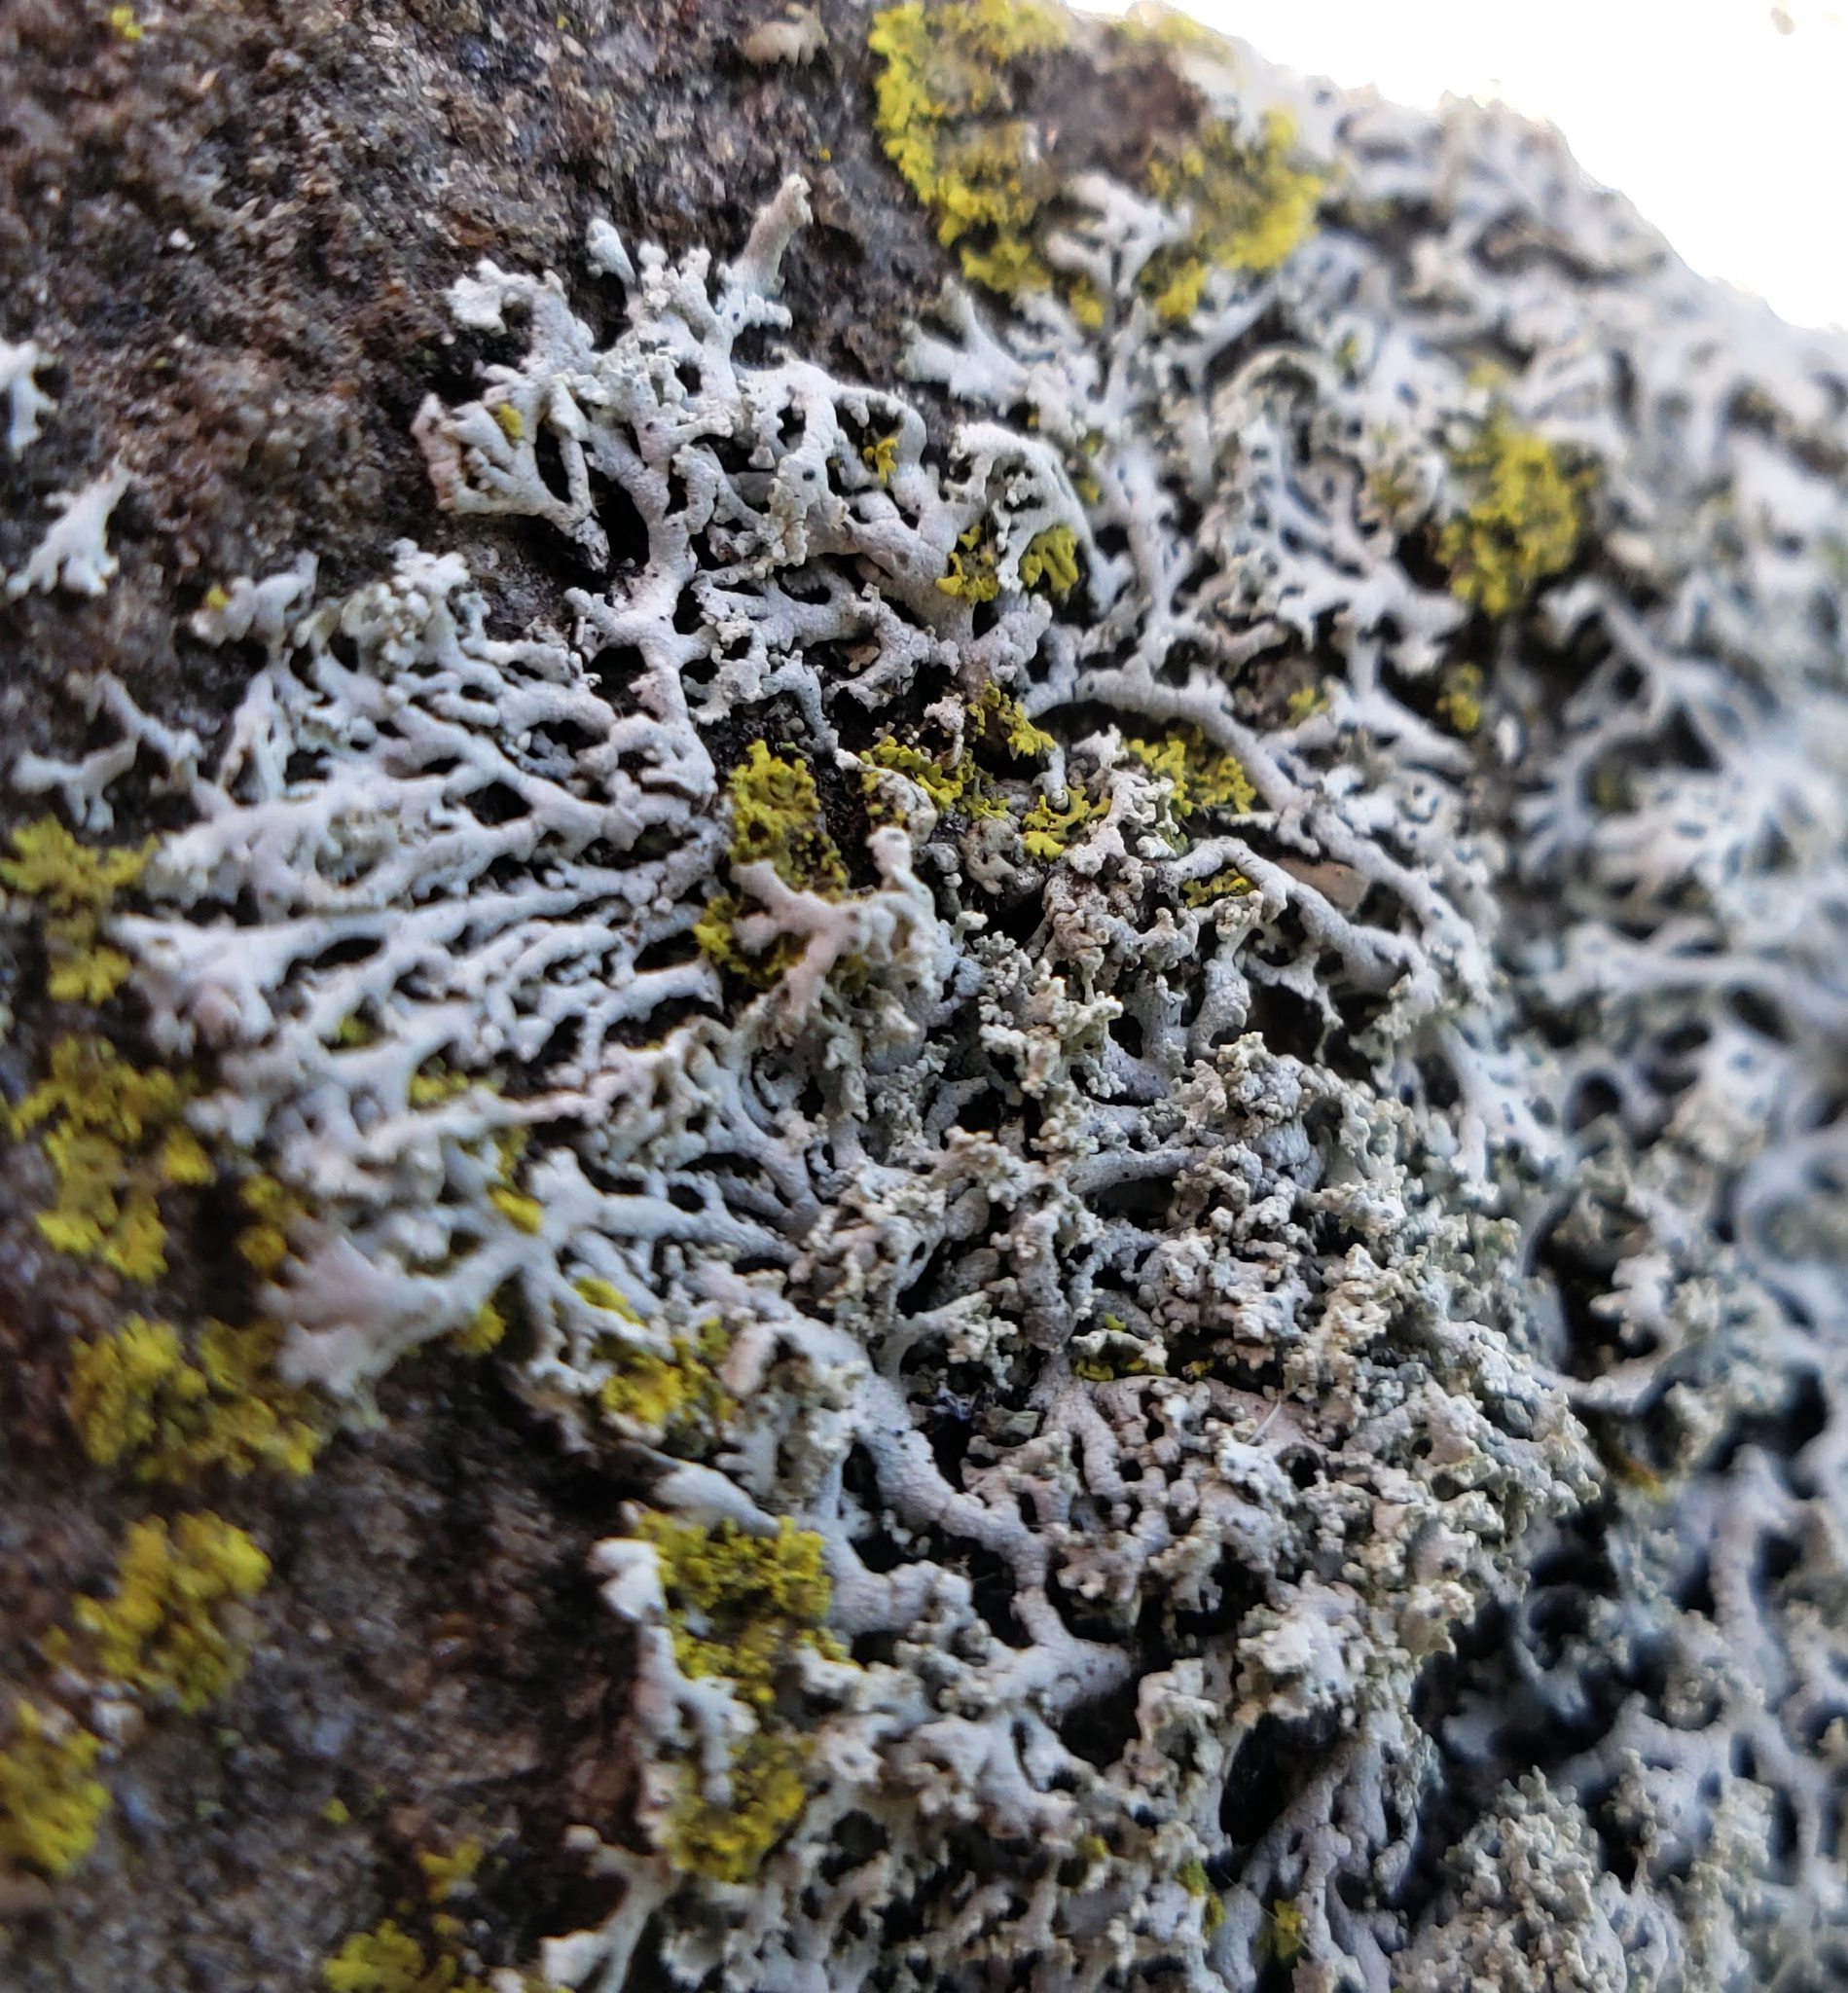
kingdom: Fungi
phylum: Ascomycota
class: Lecanoromycetes
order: Caliciales
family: Physciaceae
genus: Physcia
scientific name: Physcia thomsoniana
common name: Thomson's rosette lichen
